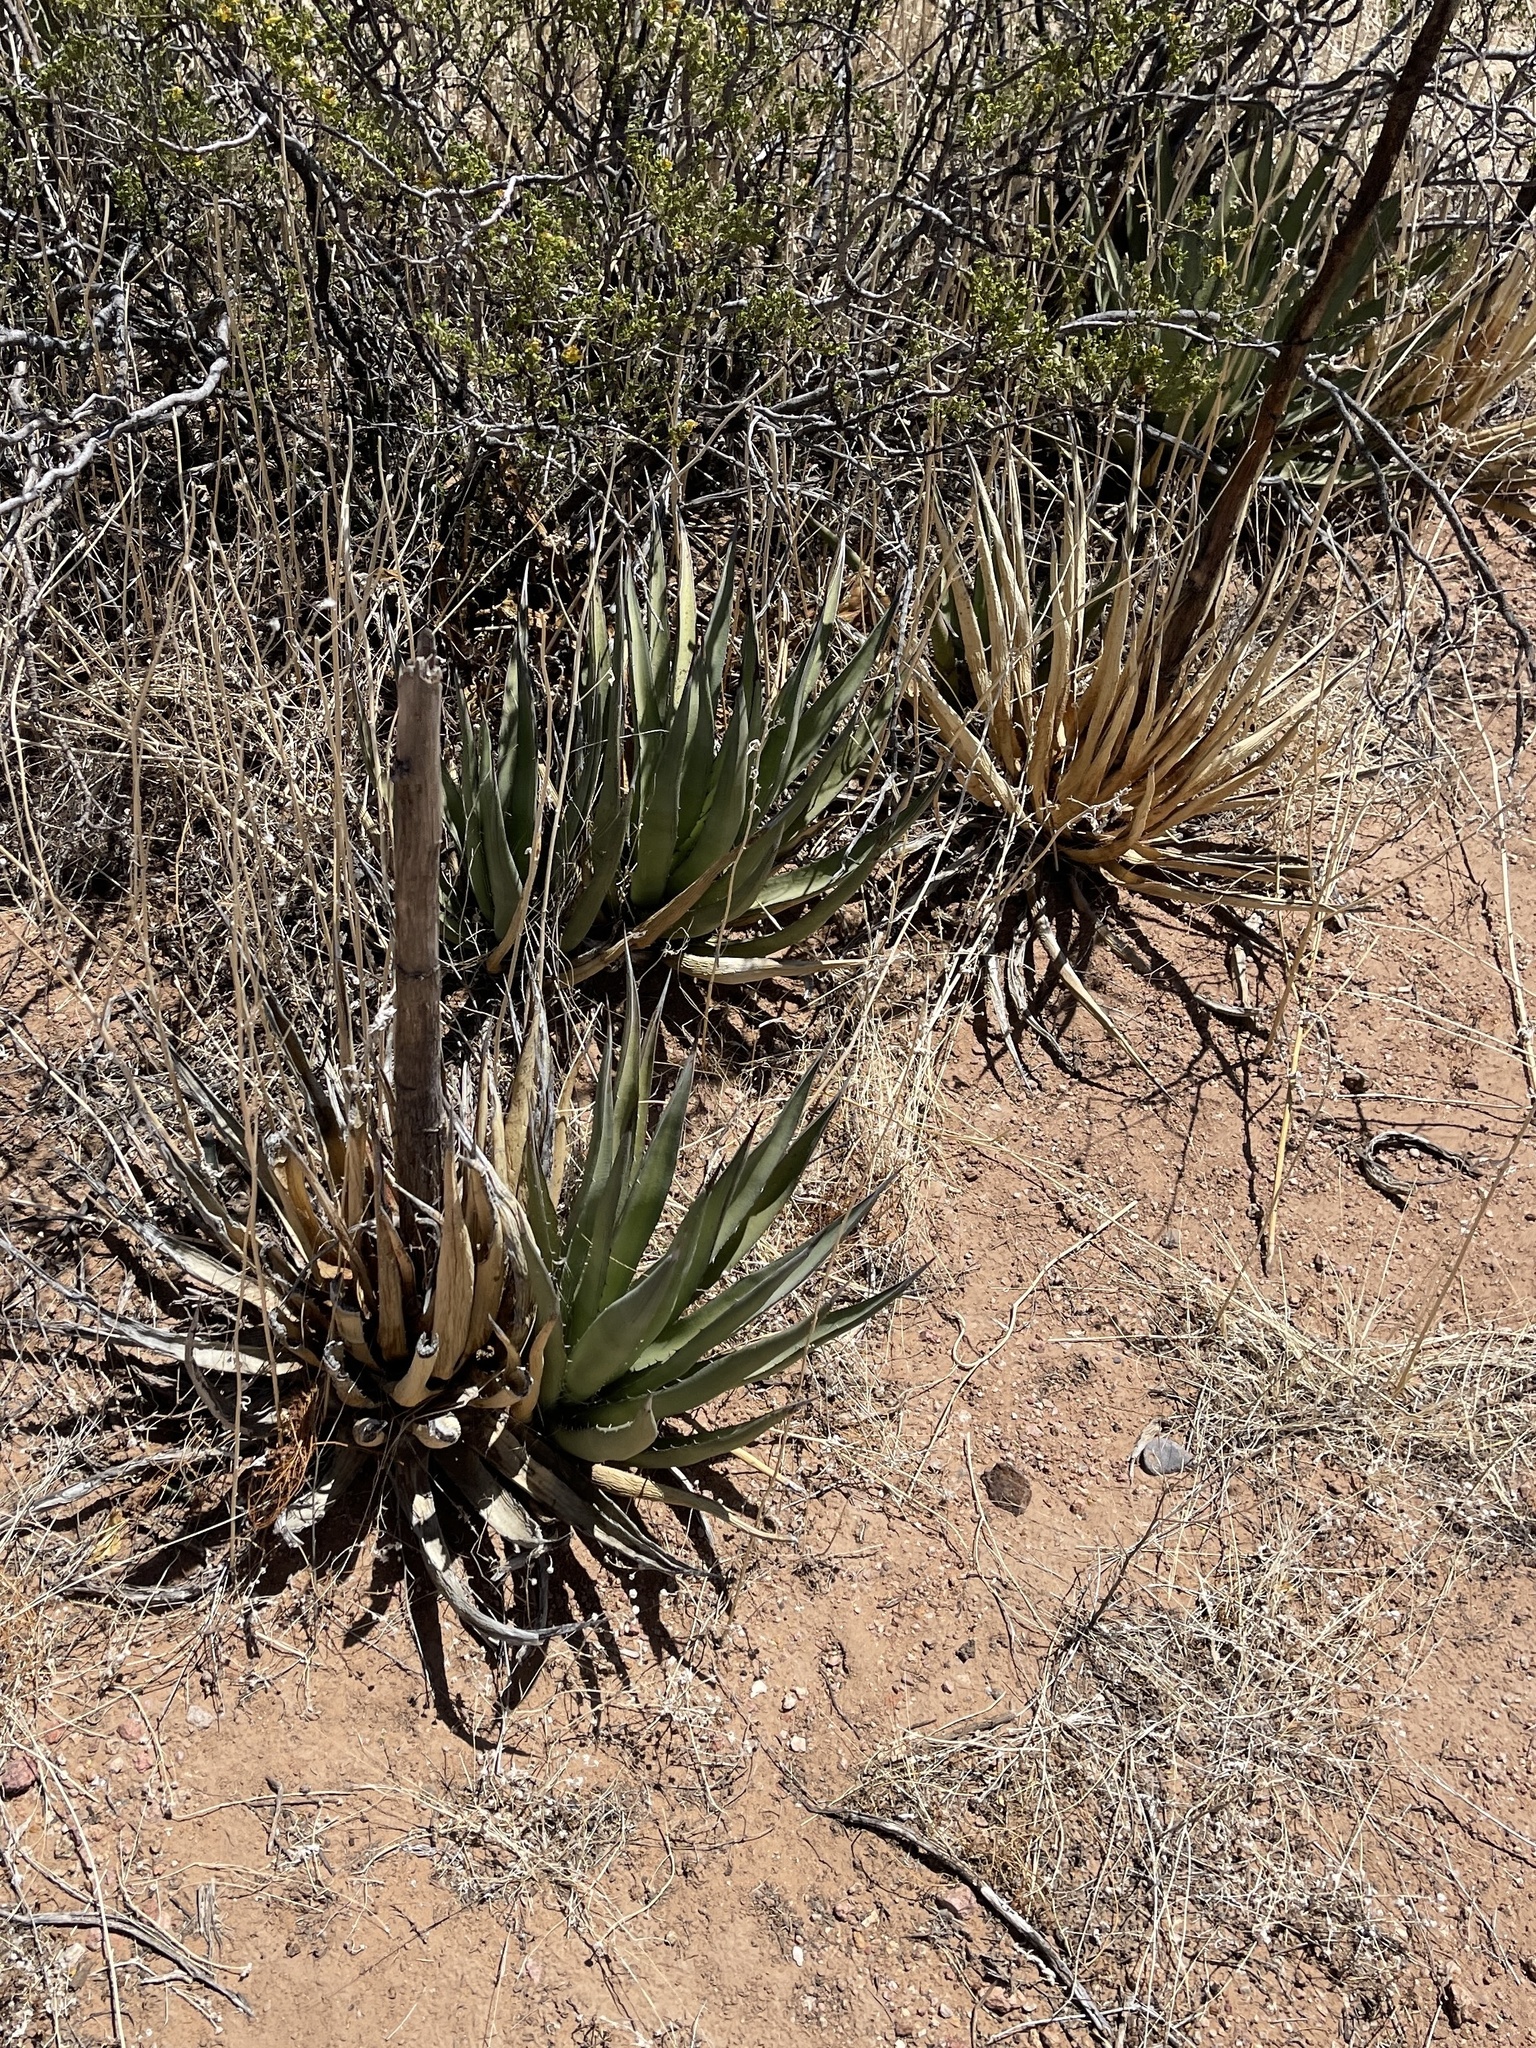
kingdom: Plantae
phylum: Tracheophyta
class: Liliopsida
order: Asparagales
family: Asparagaceae
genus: Agave
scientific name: Agave lechuguilla
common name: Lecheguilla agave
